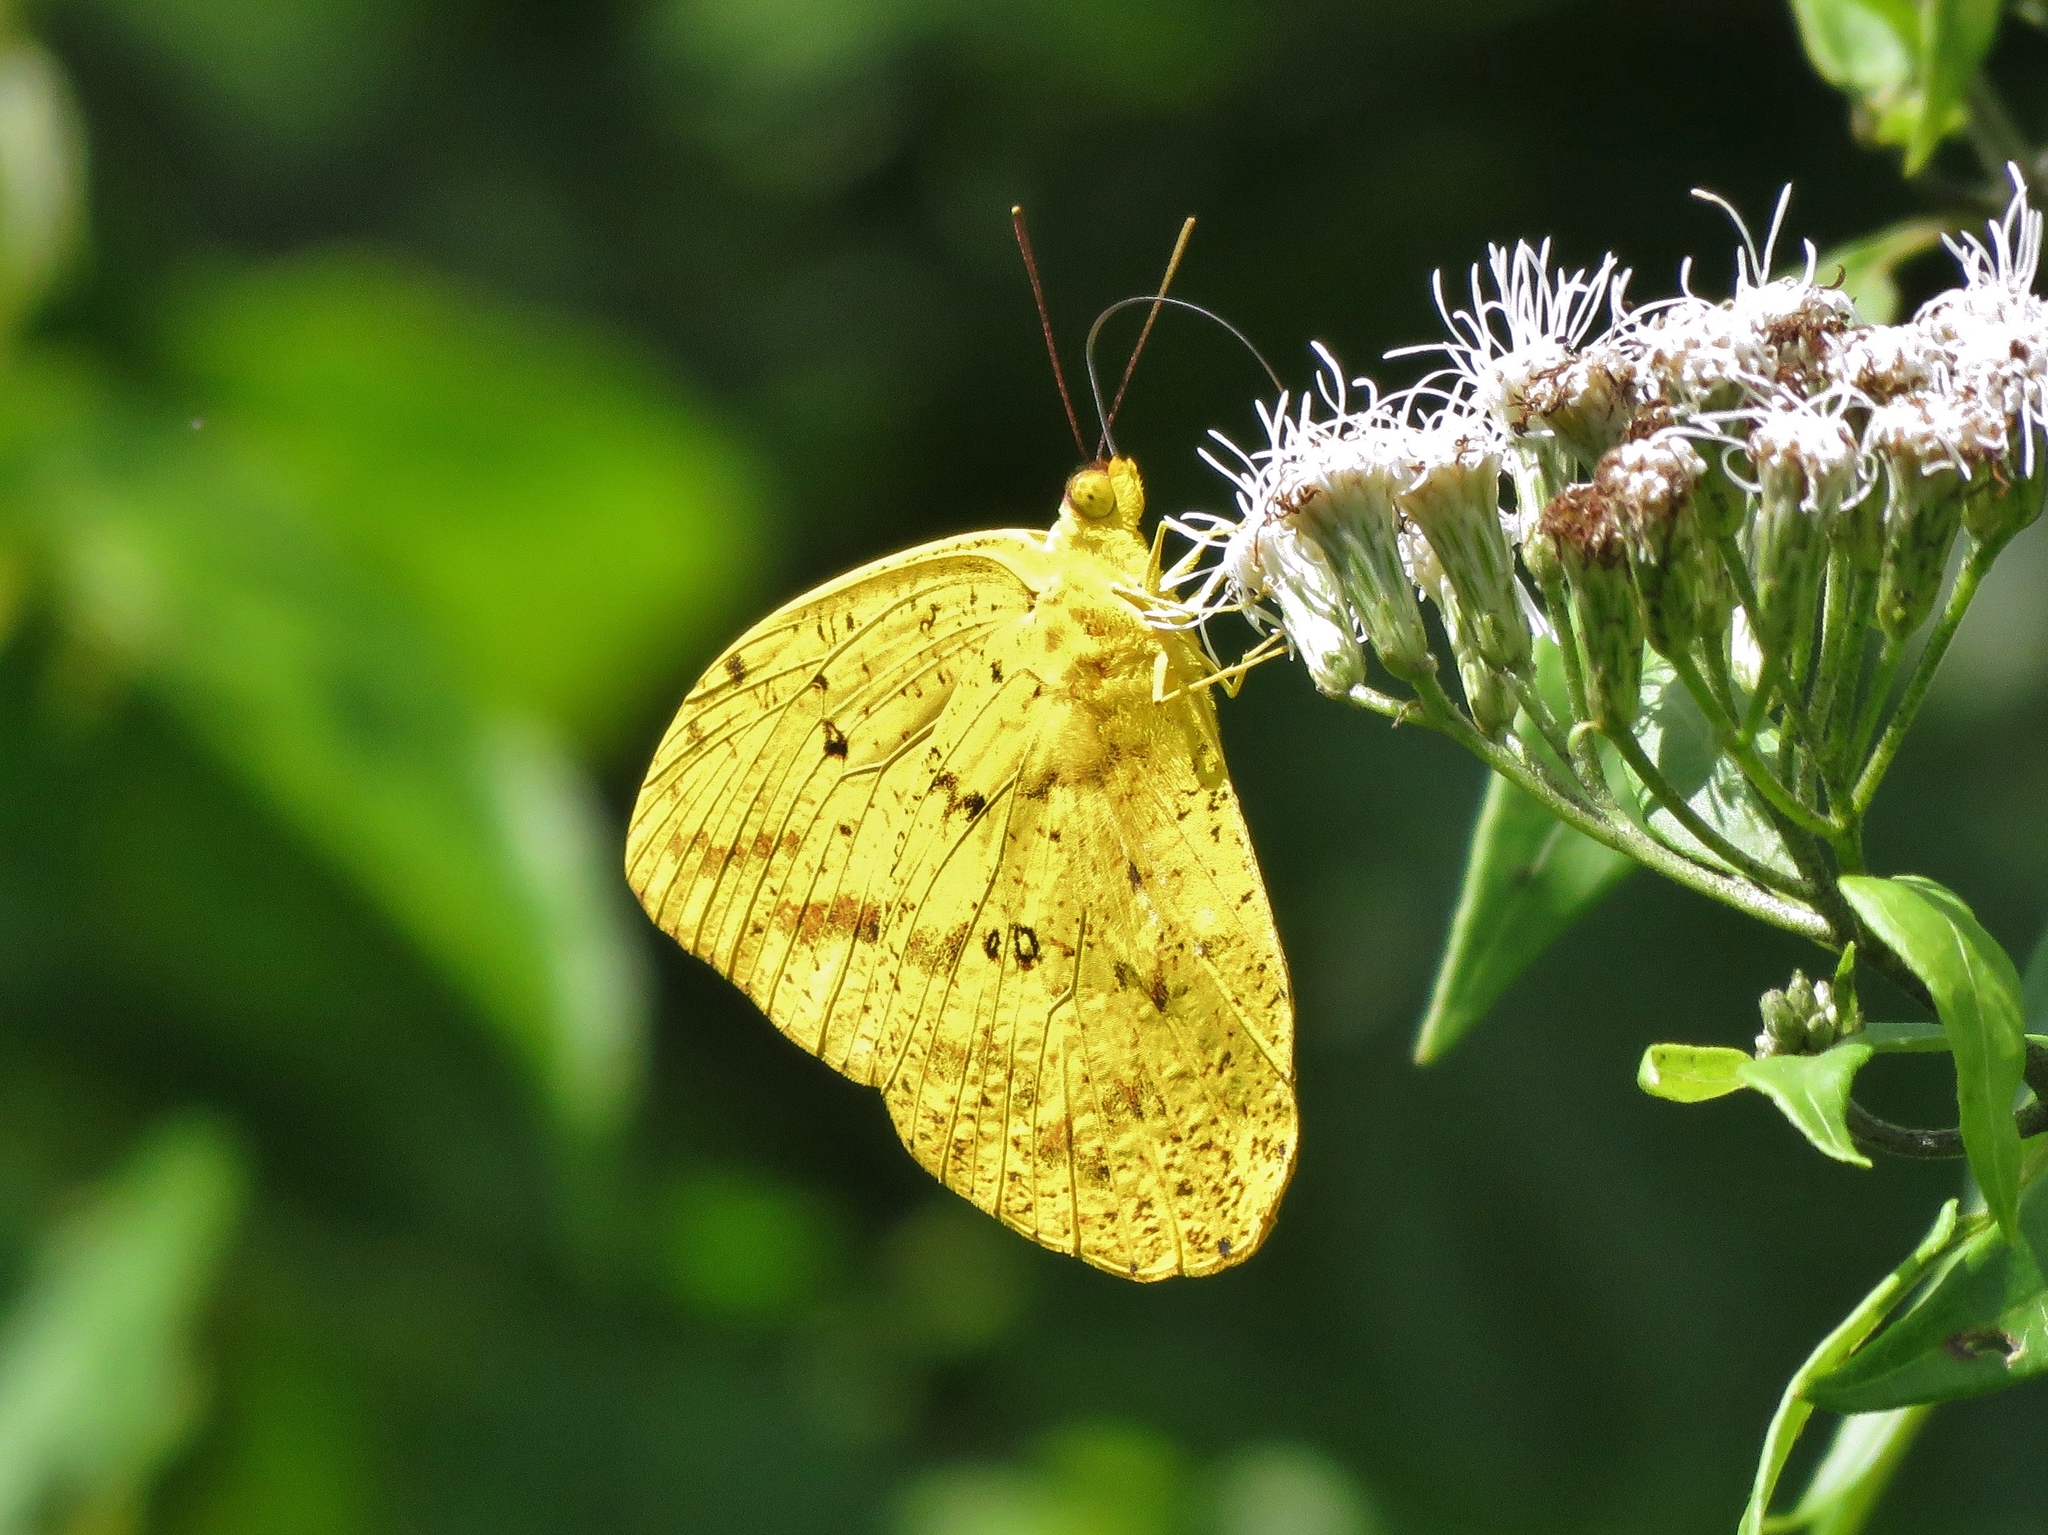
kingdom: Animalia
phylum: Arthropoda
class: Insecta
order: Lepidoptera
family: Pieridae
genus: Phoebis
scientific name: Phoebis argante
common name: Apricot sulphur
